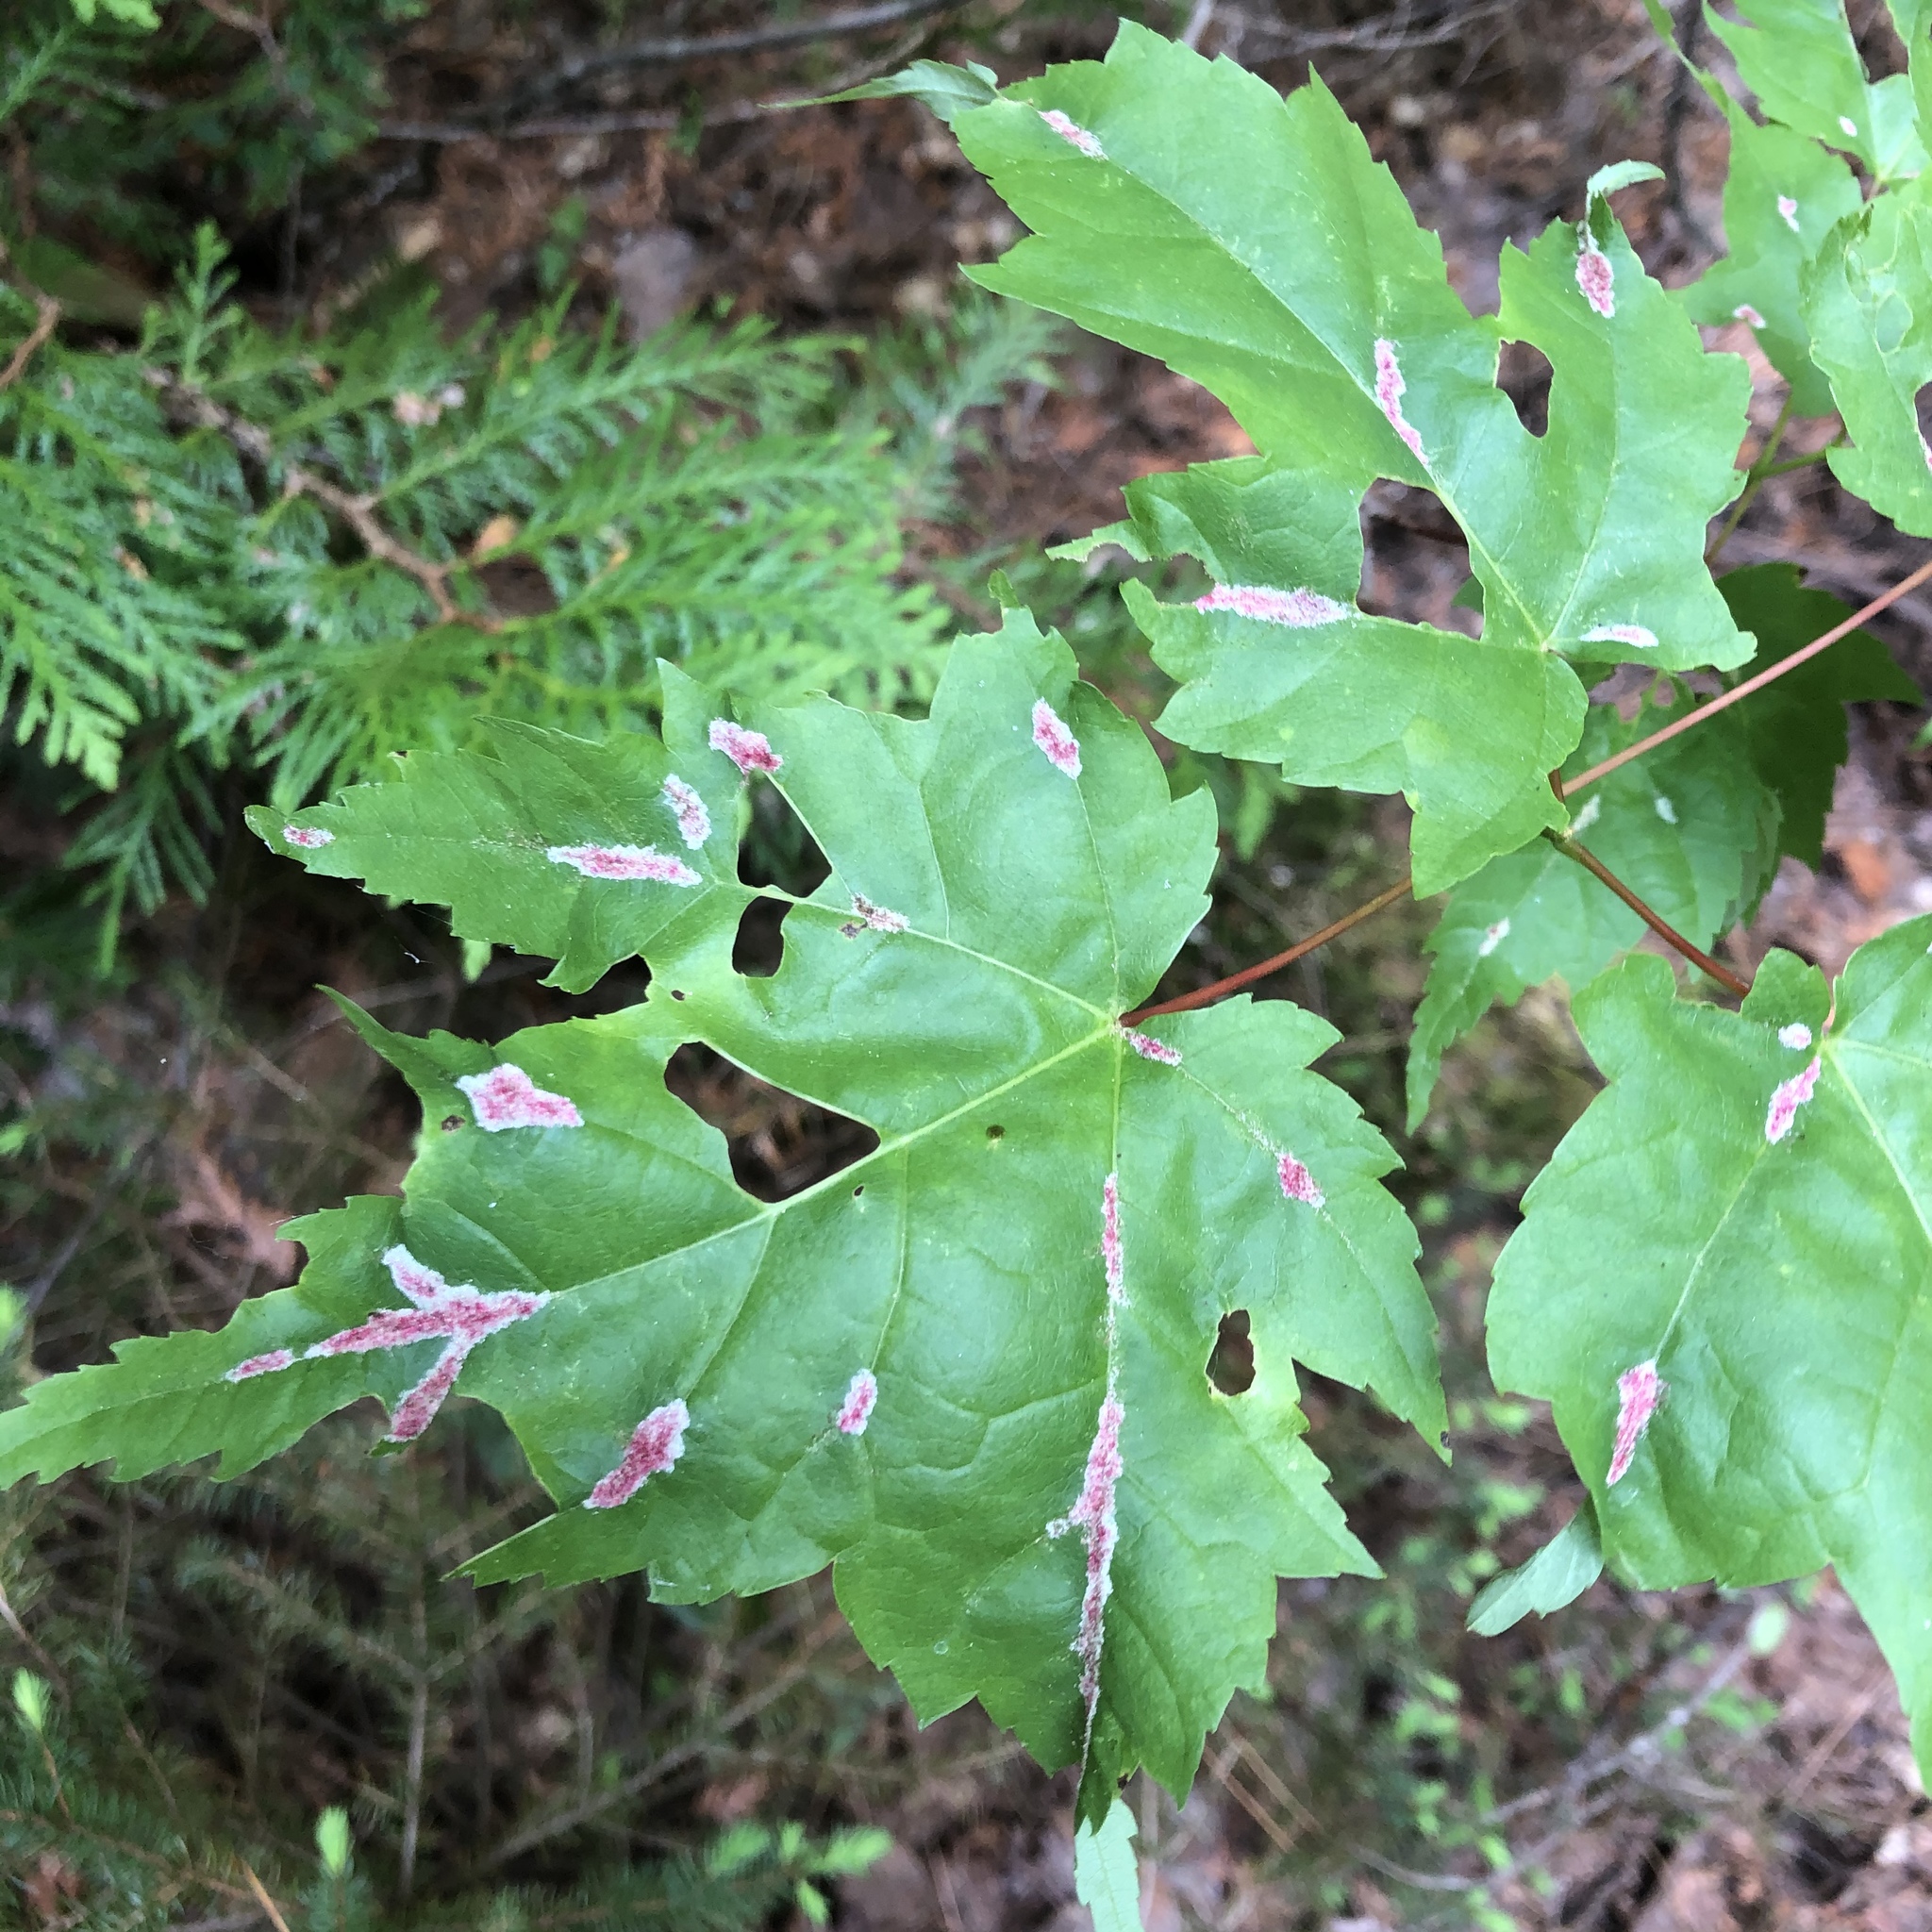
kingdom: Animalia
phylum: Arthropoda
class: Arachnida
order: Trombidiformes
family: Eriophyidae
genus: Aculus
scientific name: Aculus
